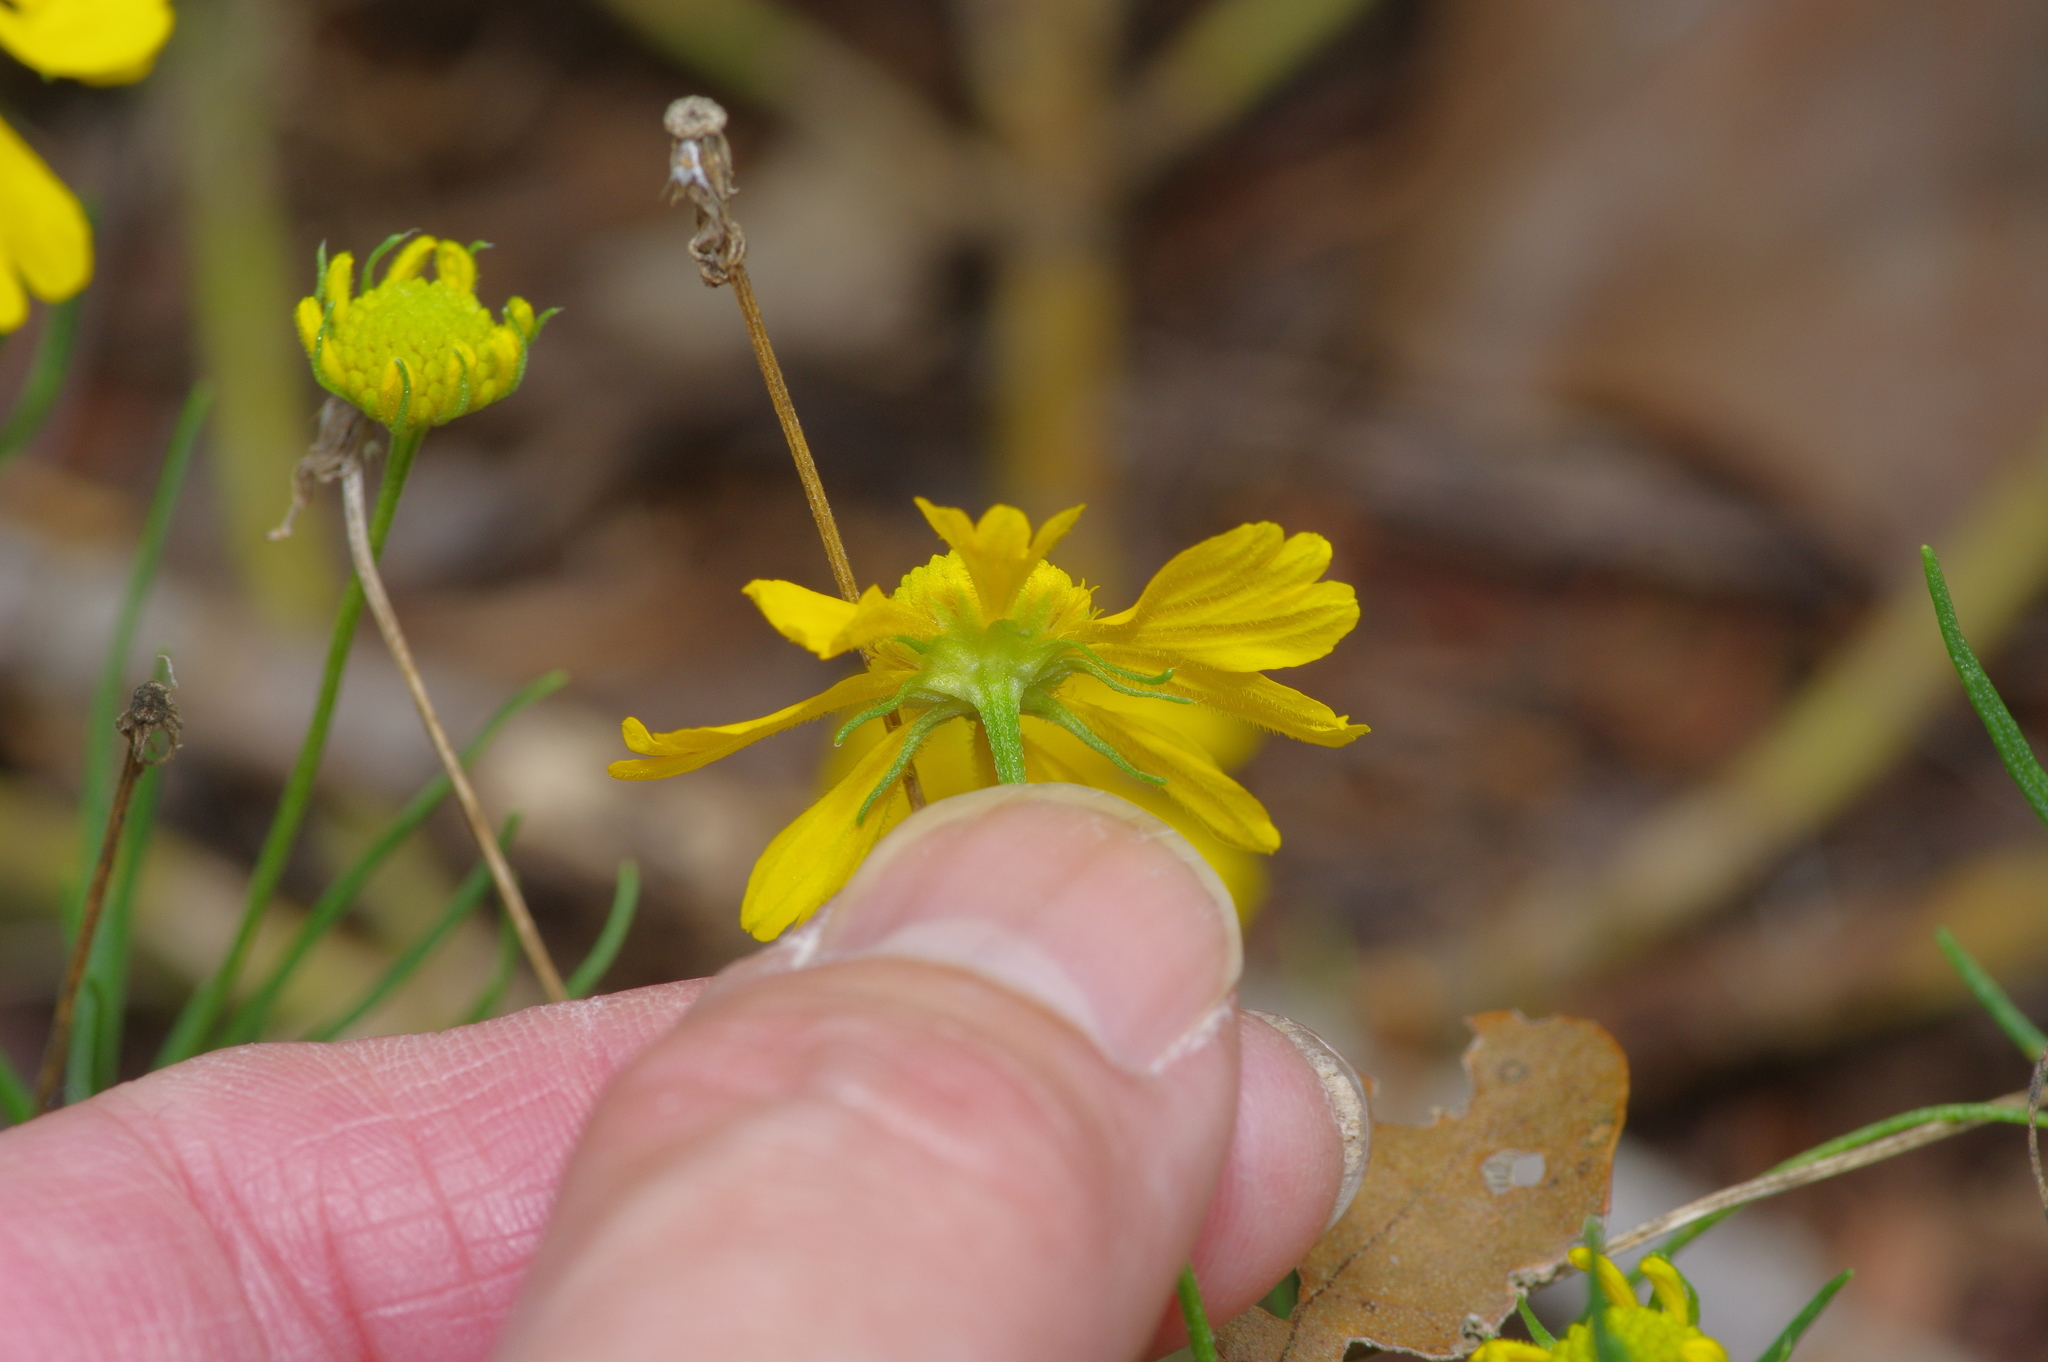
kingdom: Plantae
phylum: Tracheophyta
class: Magnoliopsida
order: Asterales
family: Asteraceae
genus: Helenium
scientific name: Helenium amarum
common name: Bitter sneezeweed
